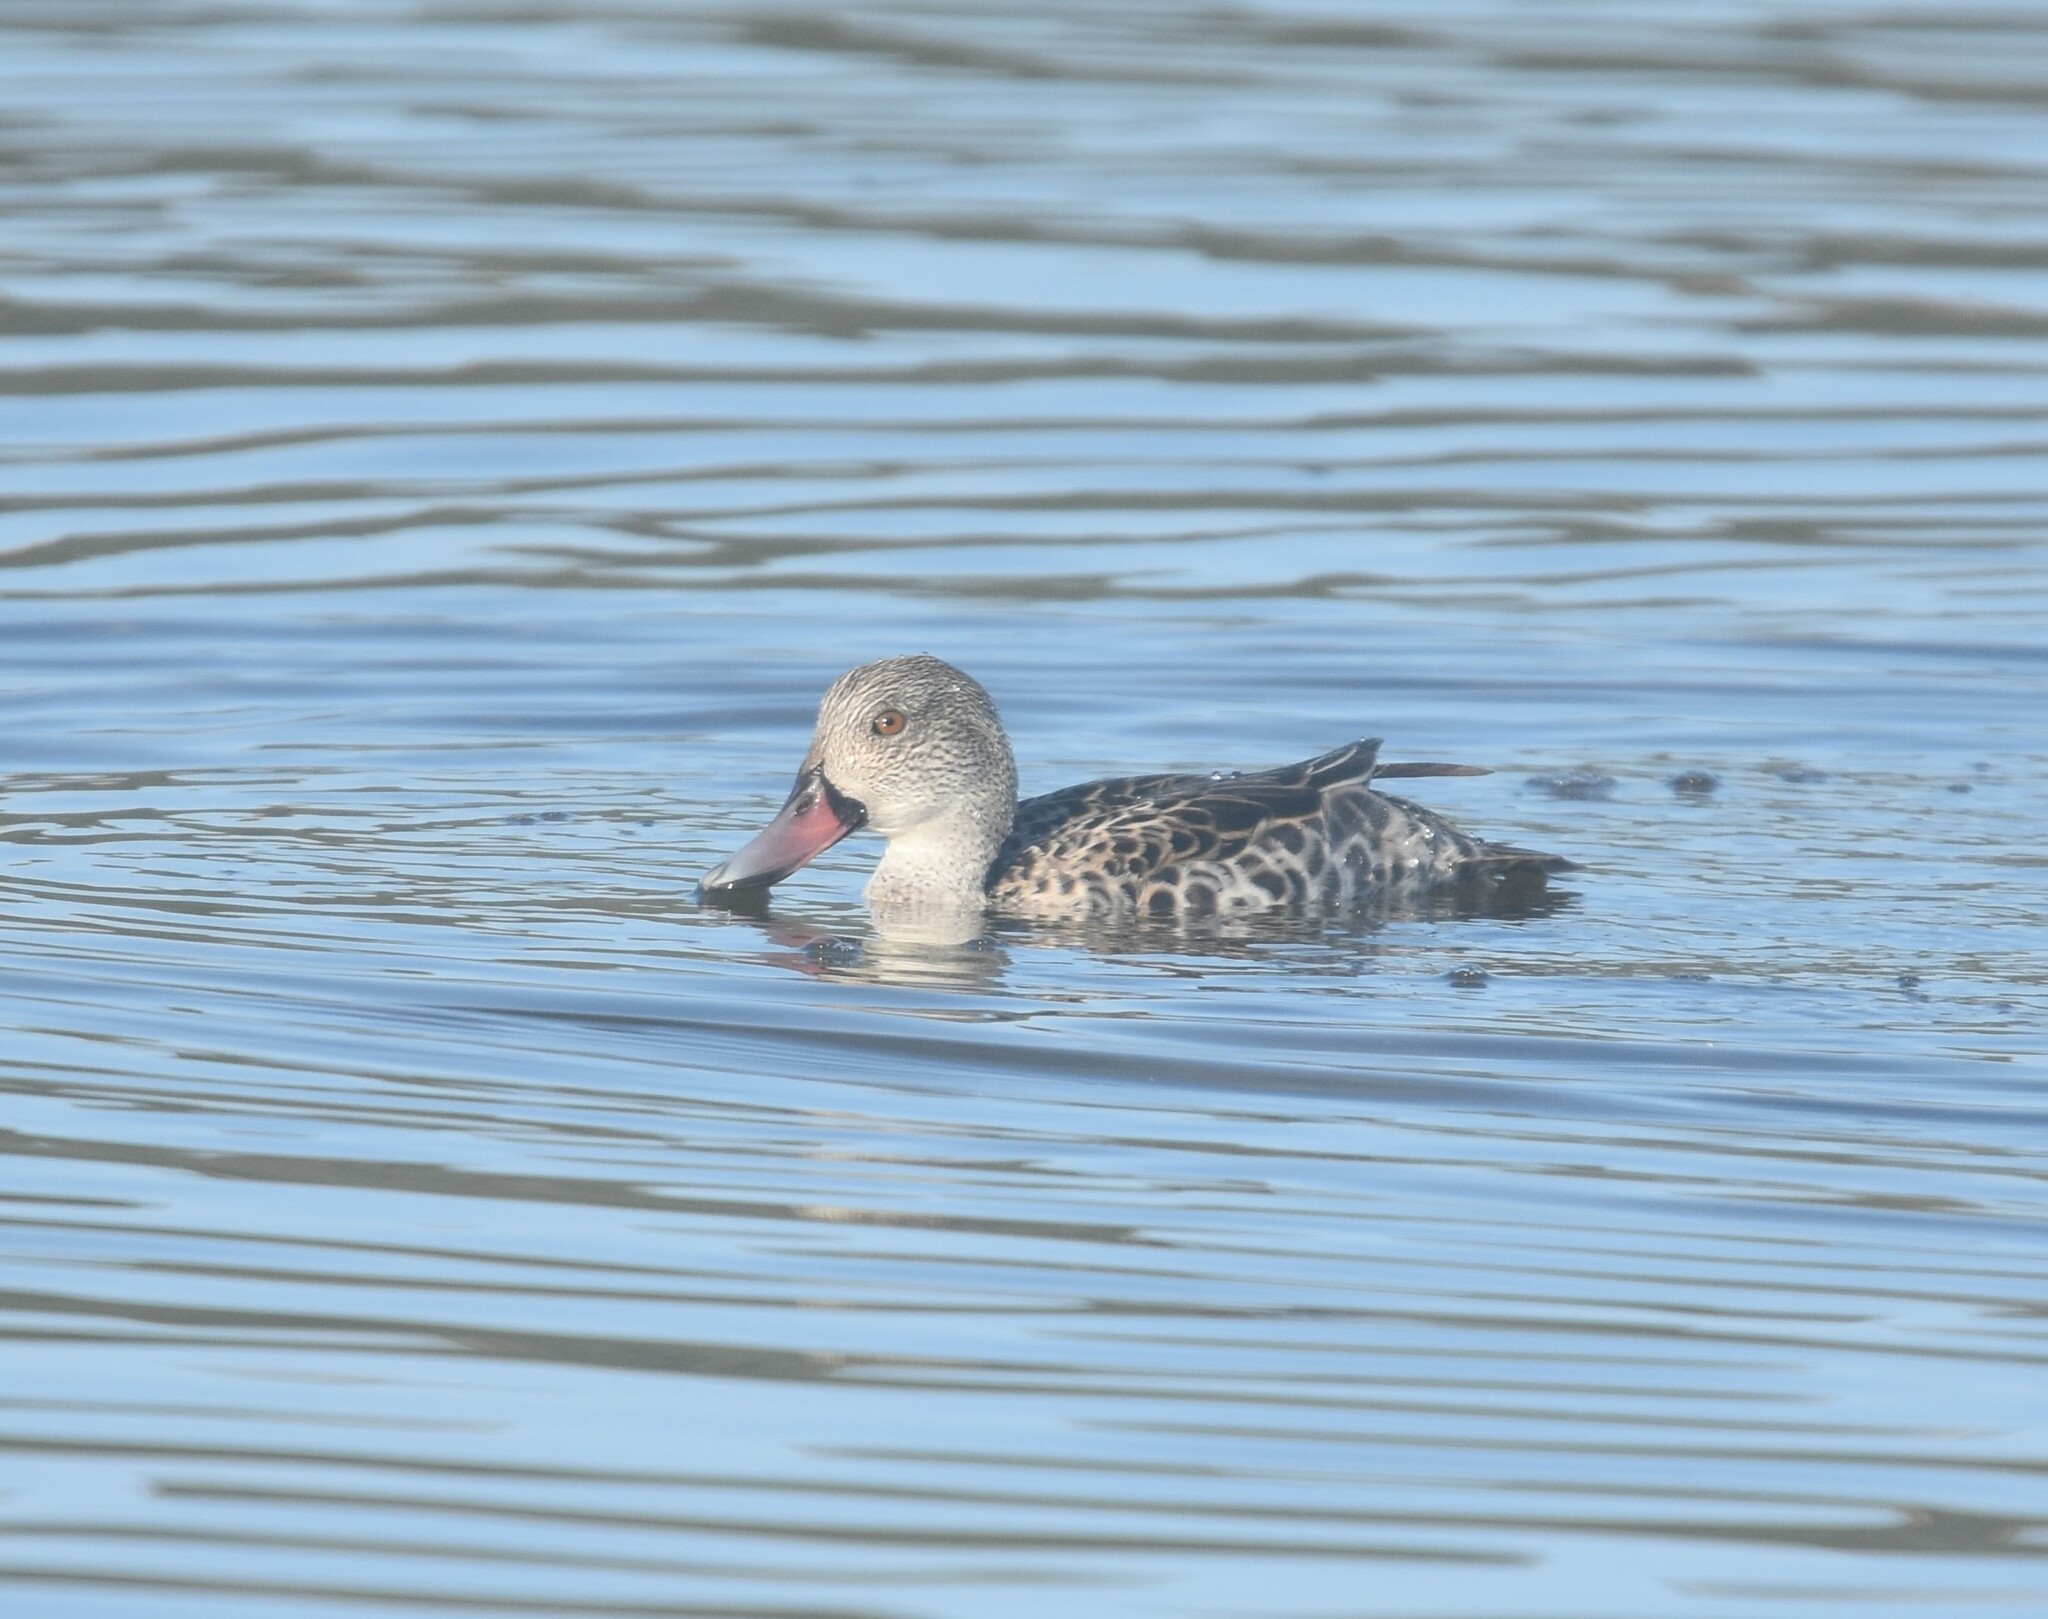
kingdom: Animalia
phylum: Chordata
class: Aves
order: Anseriformes
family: Anatidae
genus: Anas
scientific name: Anas capensis
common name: Cape teal
